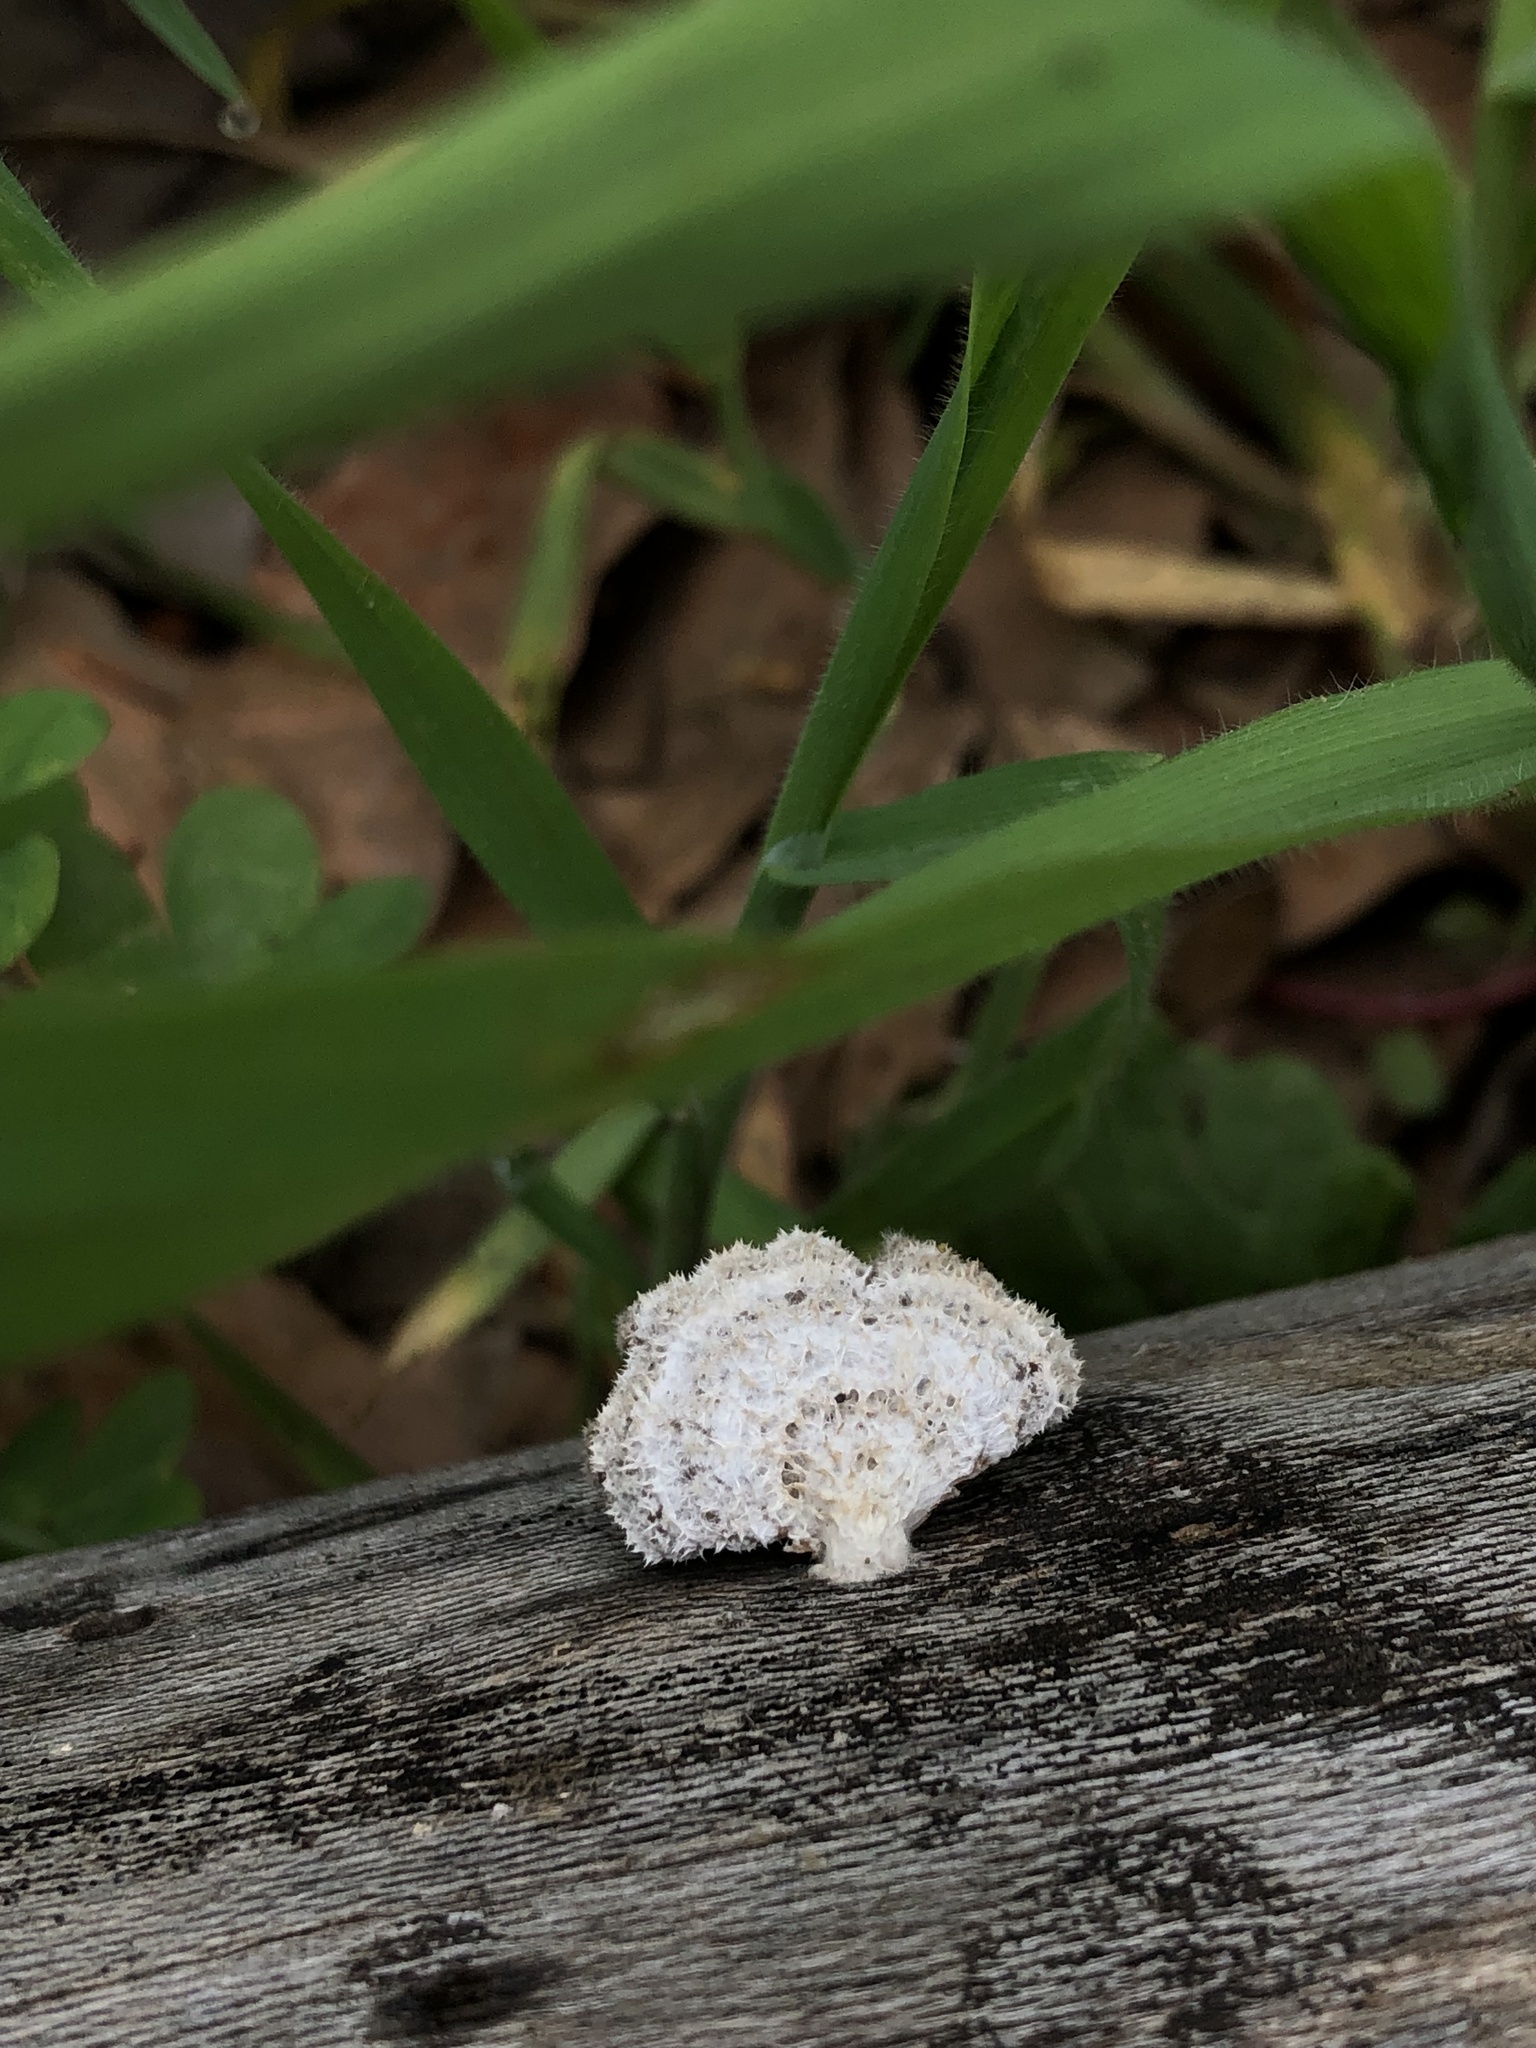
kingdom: Fungi
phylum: Basidiomycota
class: Agaricomycetes
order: Agaricales
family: Schizophyllaceae
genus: Schizophyllum
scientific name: Schizophyllum commune
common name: Common porecrust
